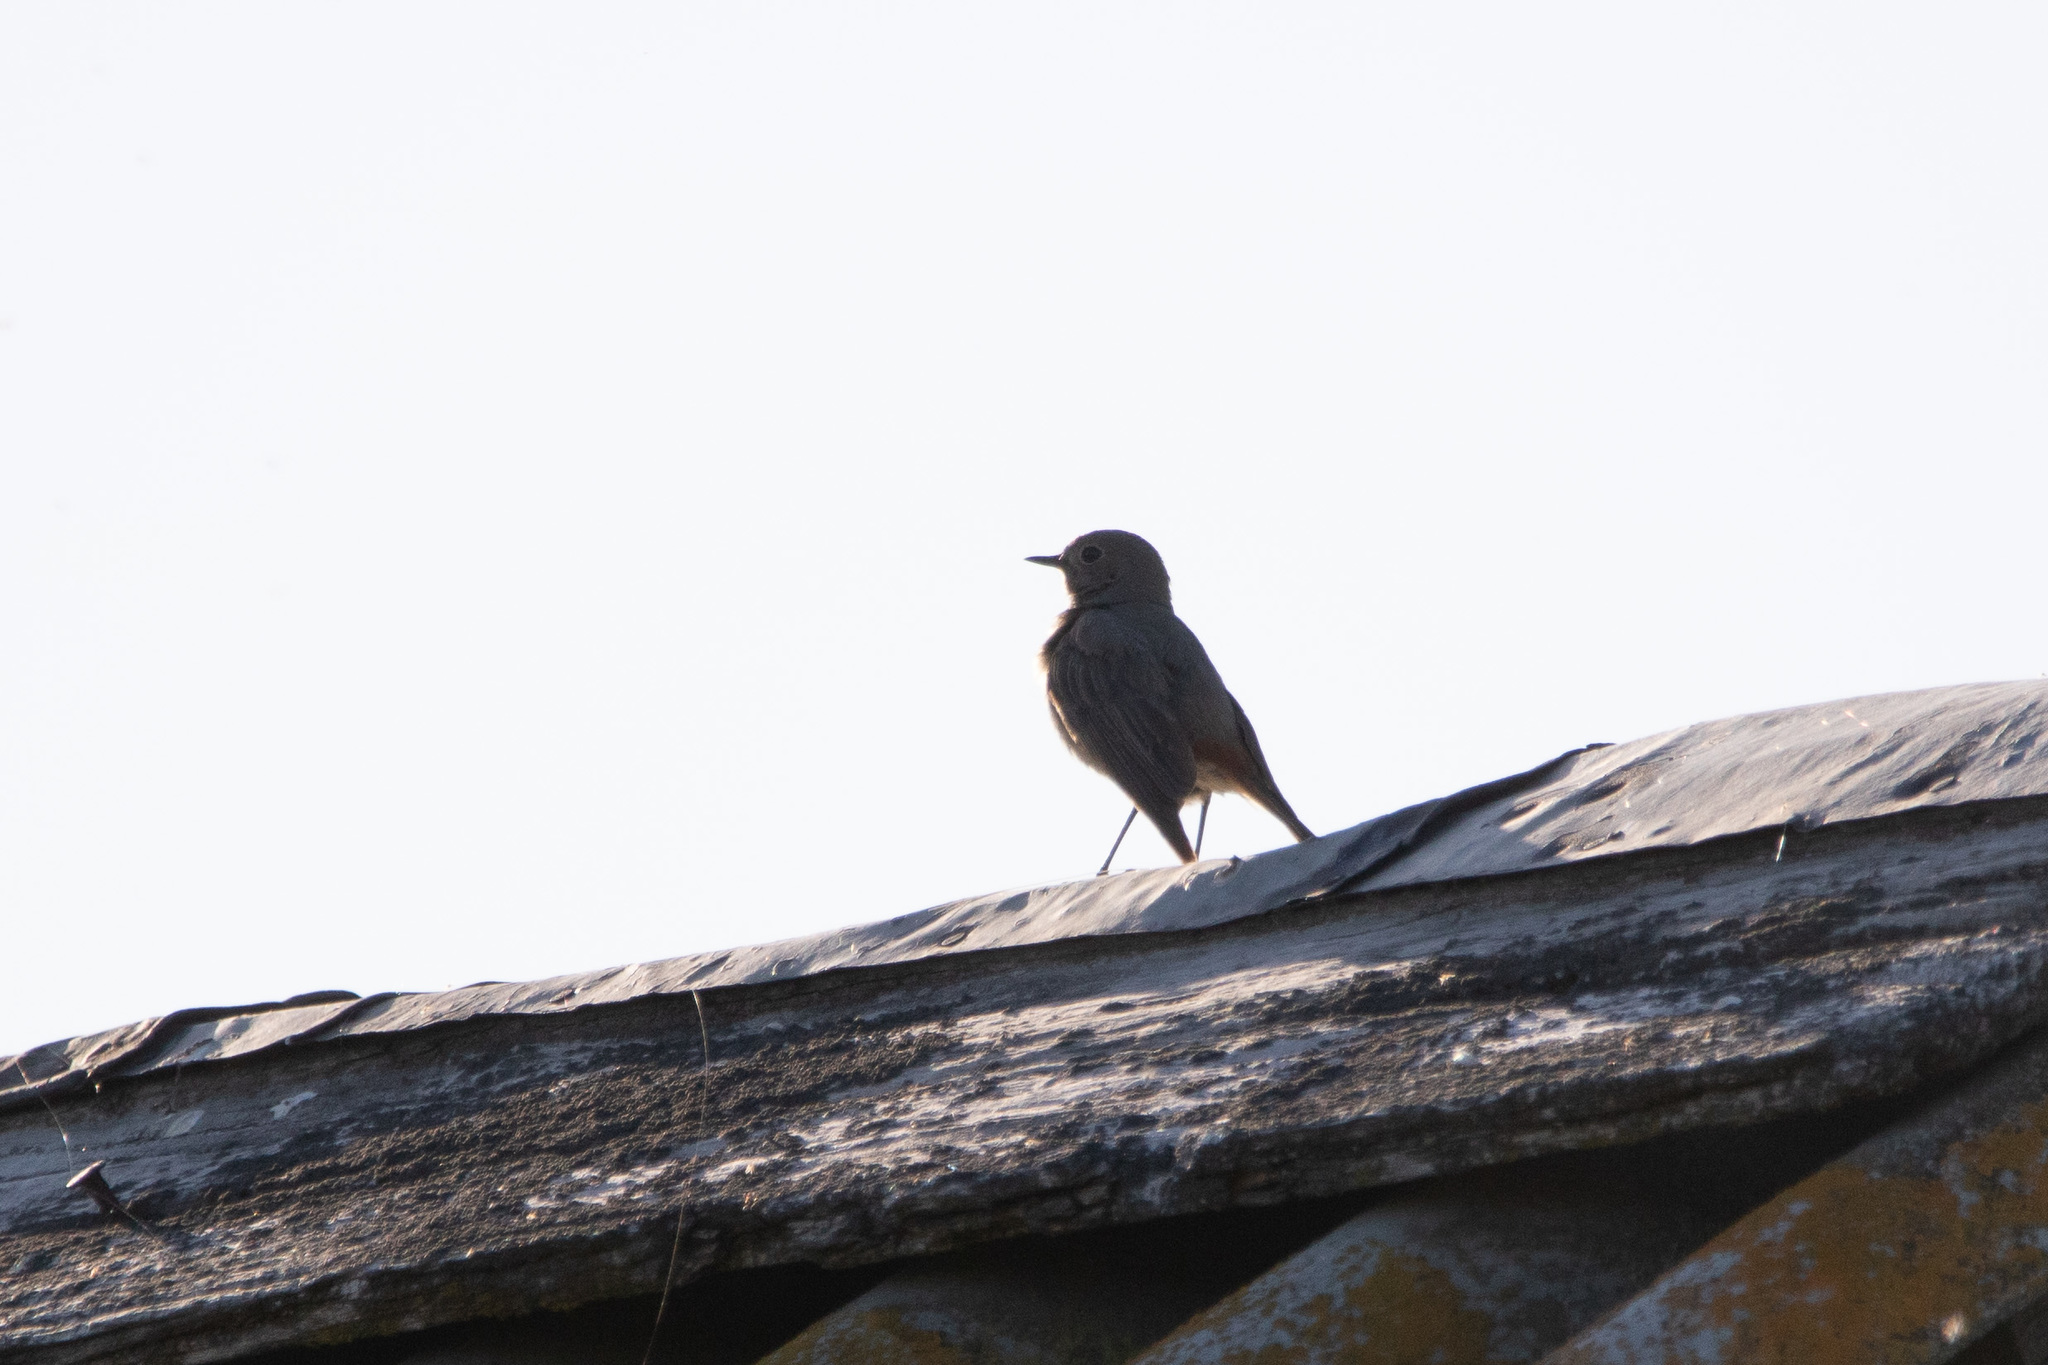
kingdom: Animalia
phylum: Chordata
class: Aves
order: Passeriformes
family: Muscicapidae
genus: Phoenicurus
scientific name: Phoenicurus ochruros
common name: Black redstart
